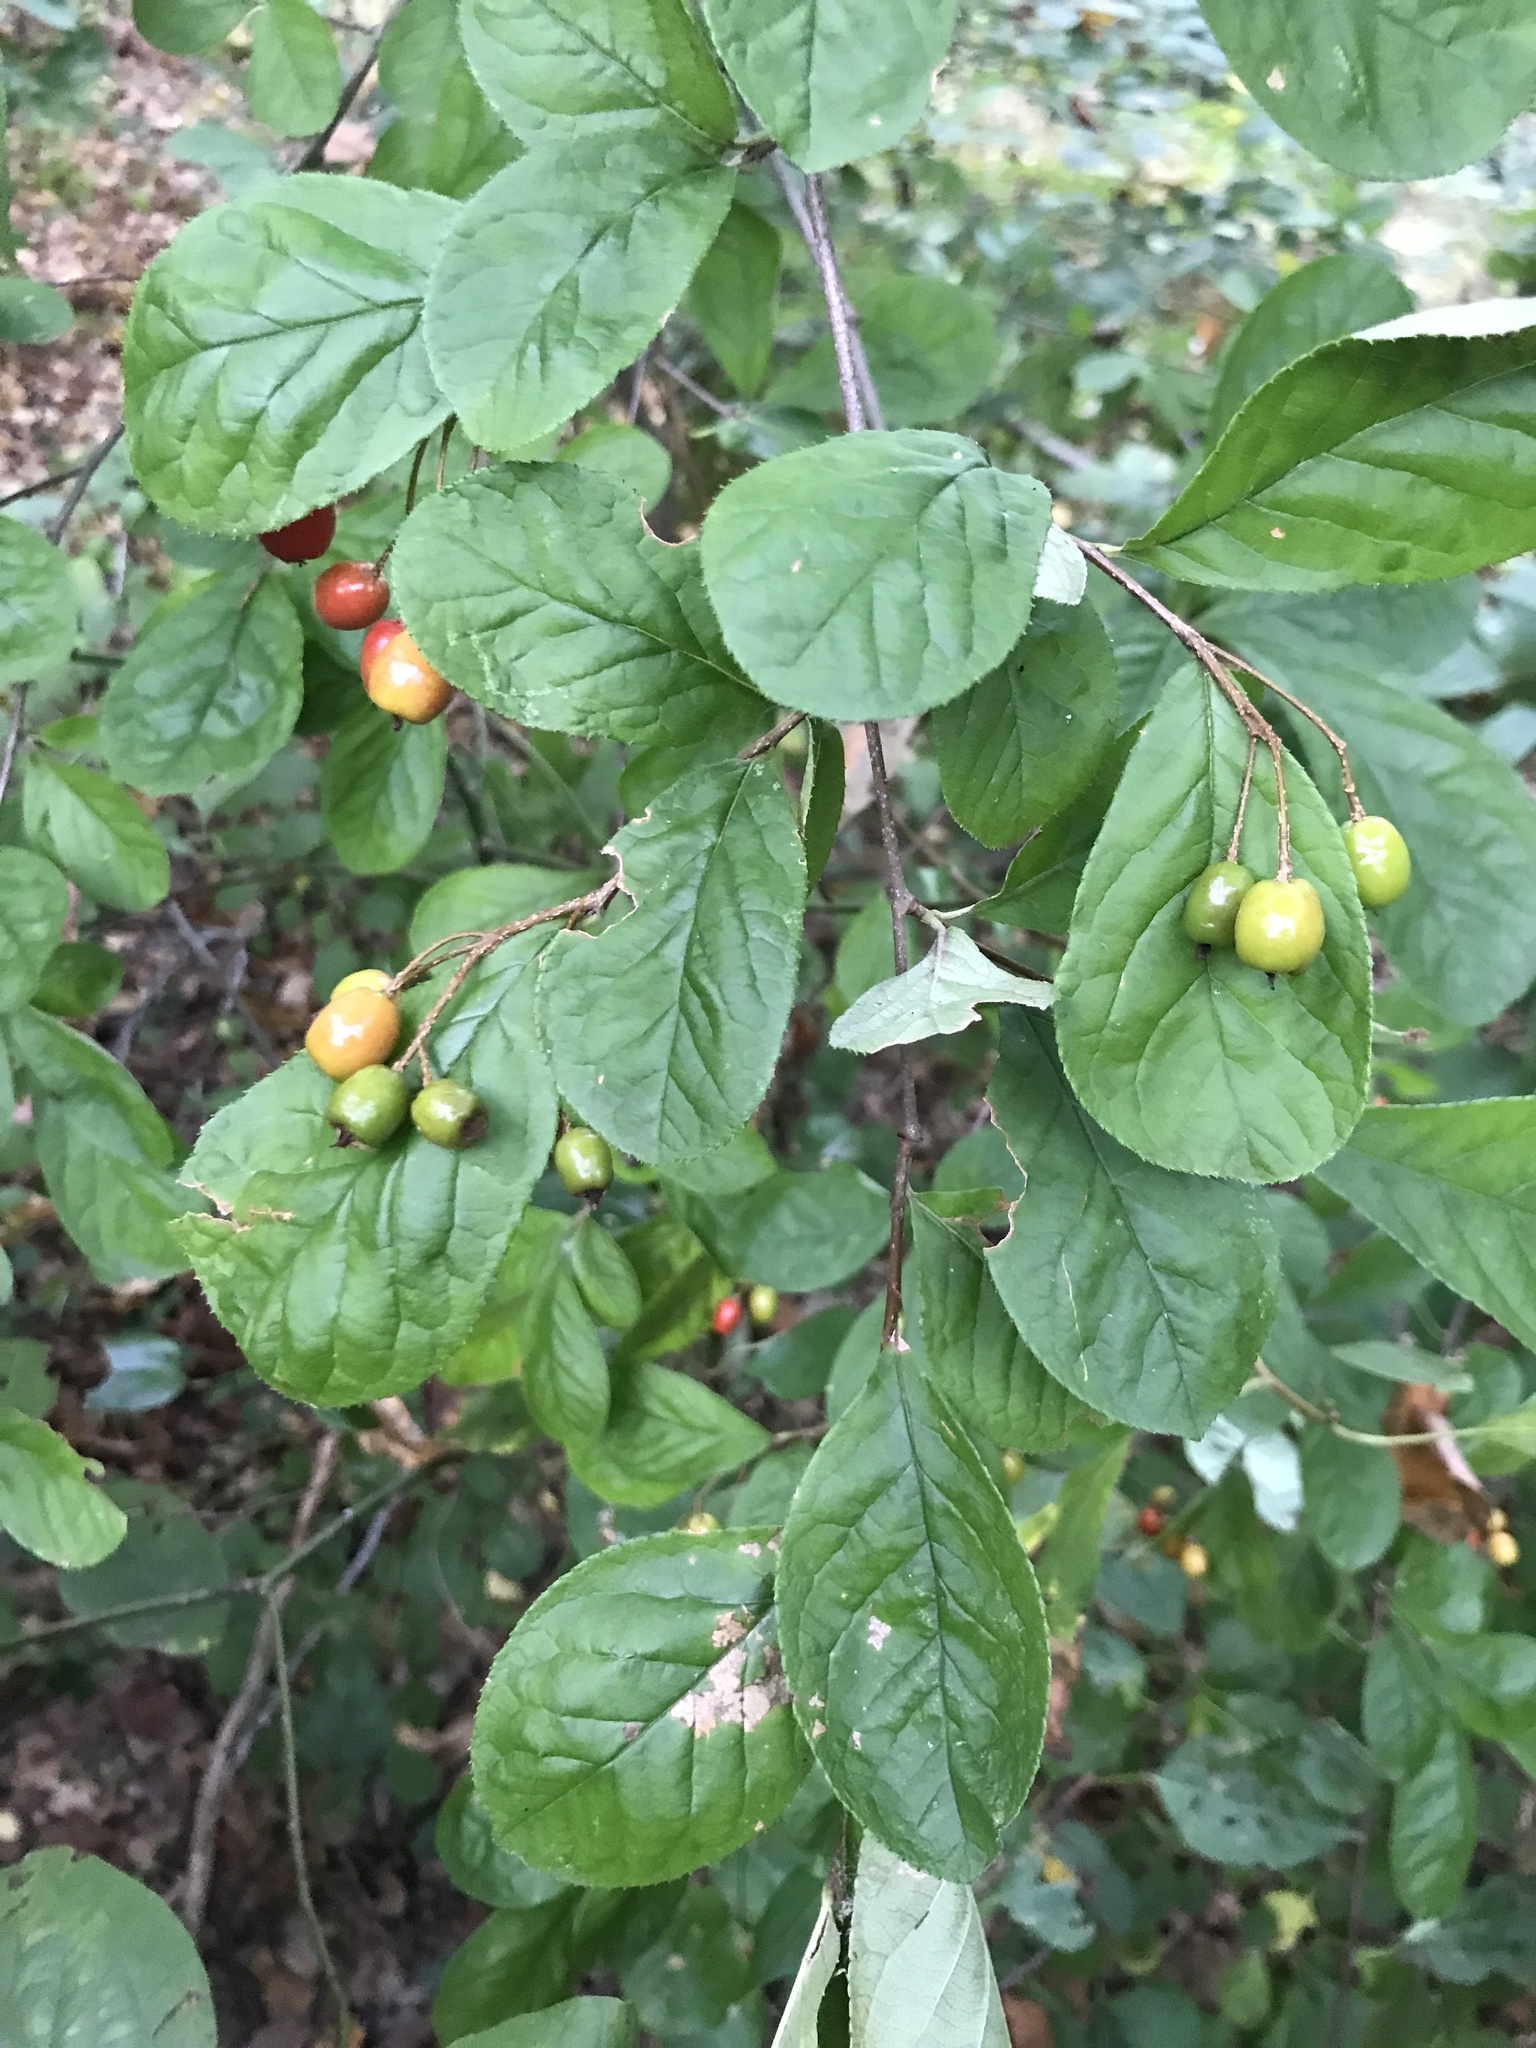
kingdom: Plantae
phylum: Tracheophyta
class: Magnoliopsida
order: Rosales
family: Rosaceae
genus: Pourthiaea
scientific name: Pourthiaea villosa
